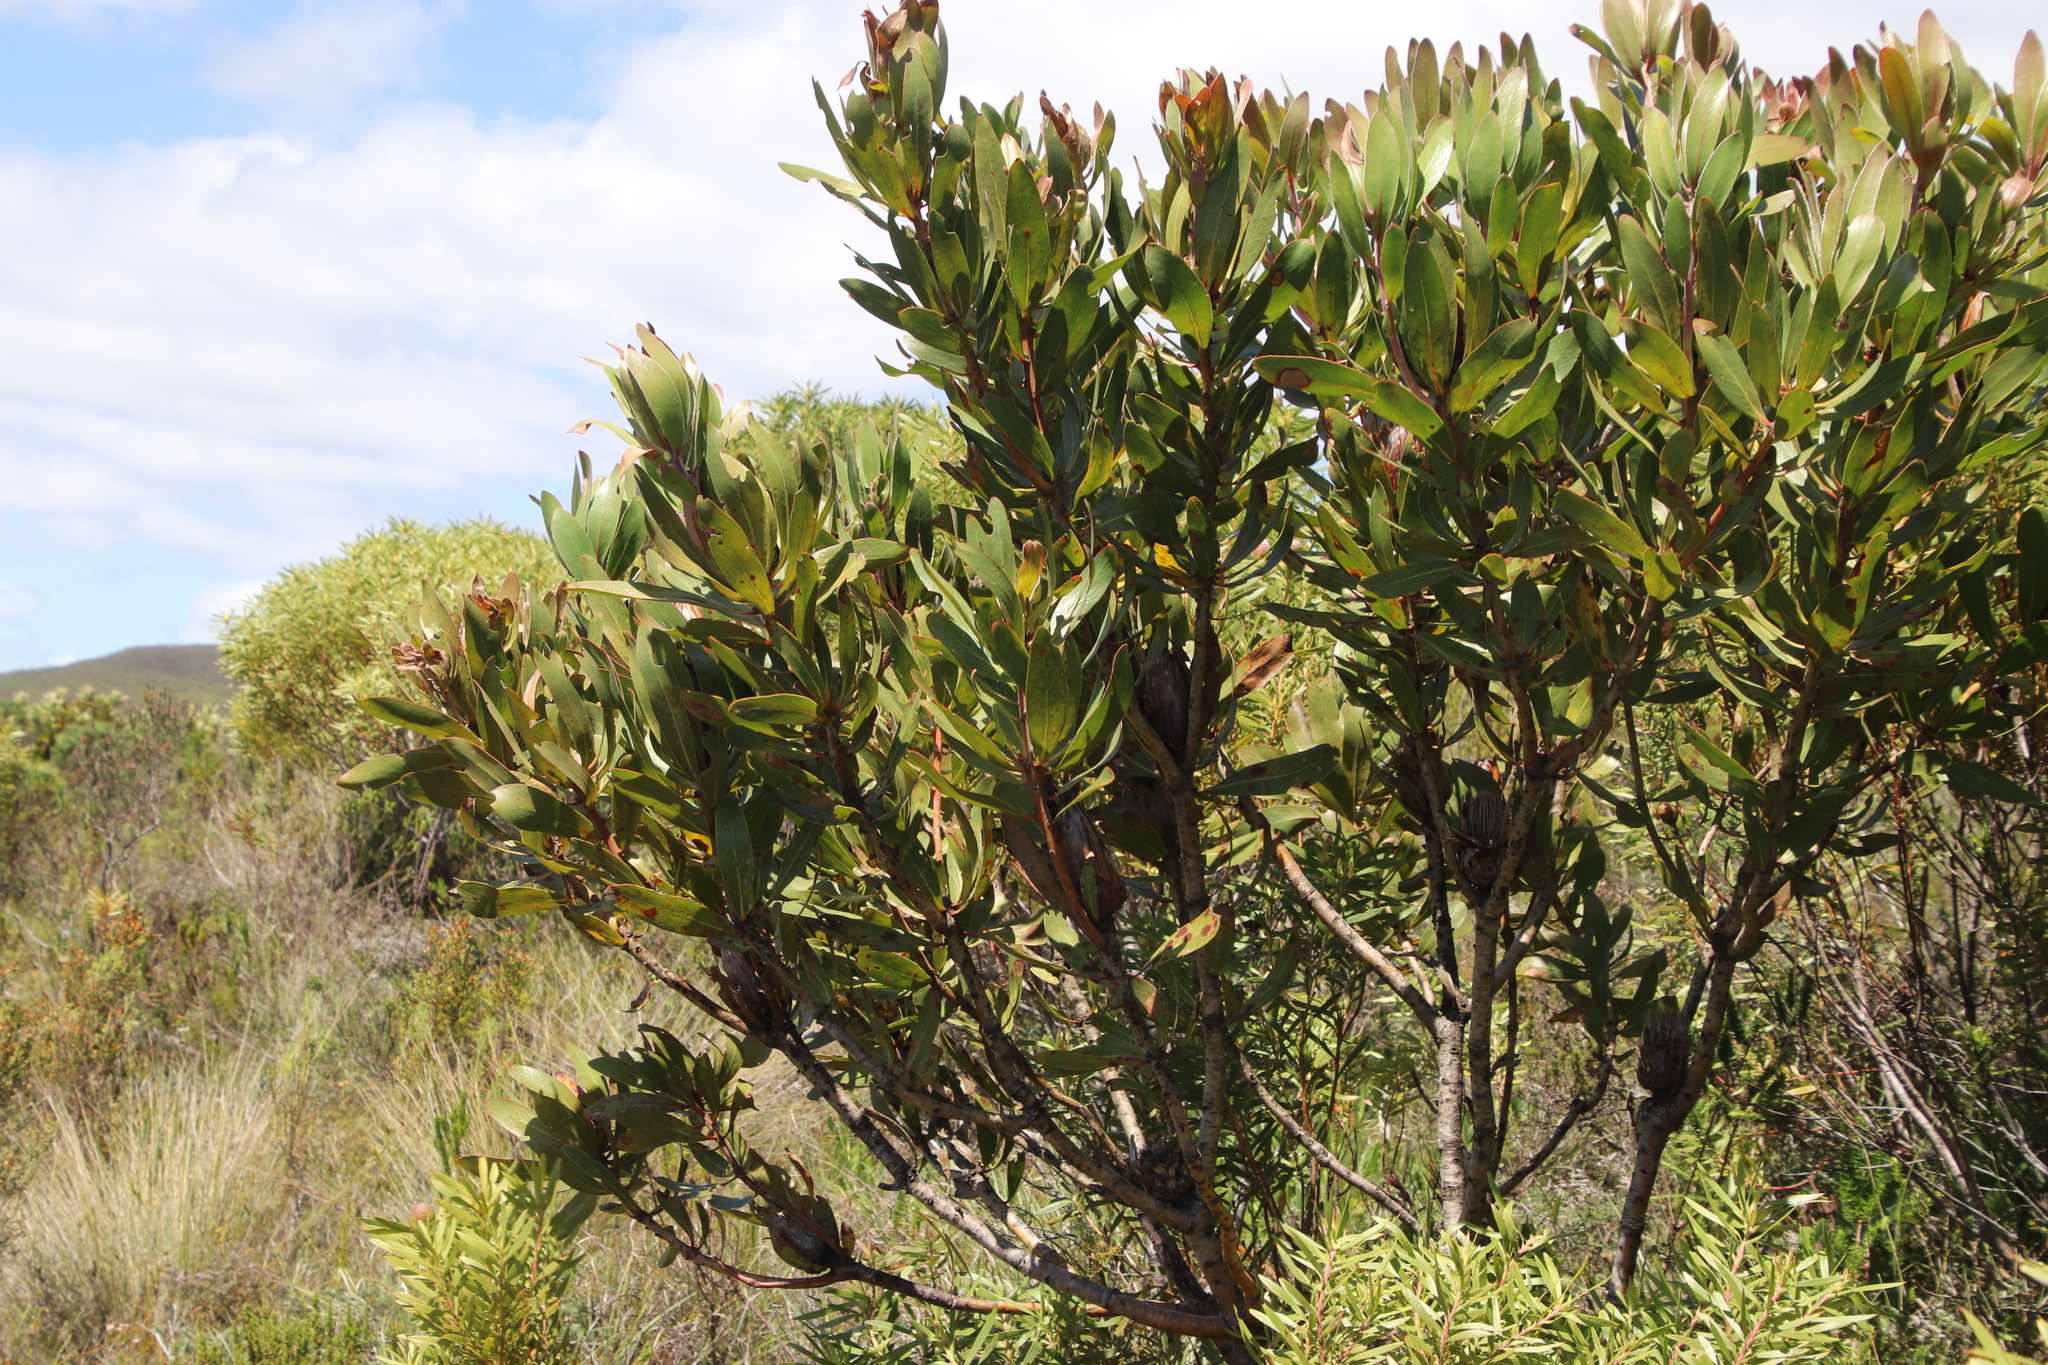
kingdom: Plantae
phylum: Tracheophyta
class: Magnoliopsida
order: Proteales
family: Proteaceae
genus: Protea
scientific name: Protea obtusifolia
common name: Bredasdorp sugarbush
